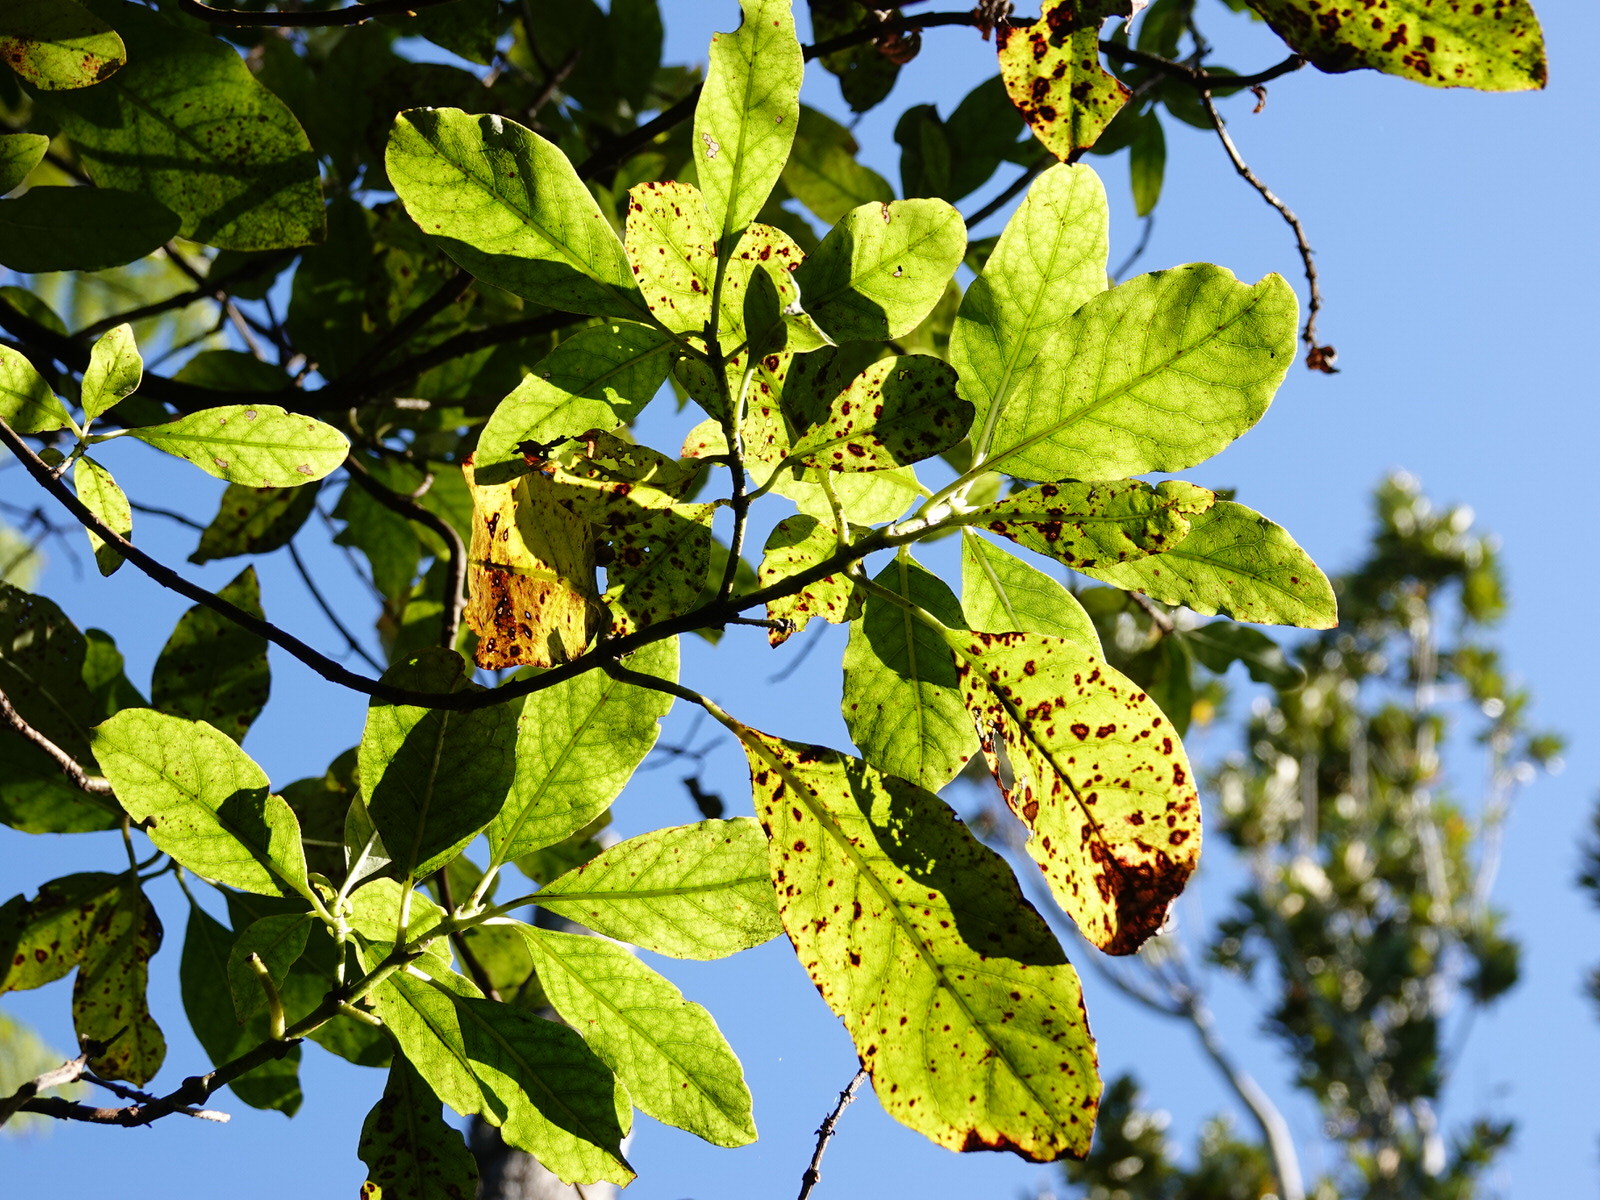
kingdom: Plantae
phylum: Tracheophyta
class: Magnoliopsida
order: Gentianales
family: Rubiaceae
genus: Coprosma
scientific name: Coprosma autumnalis
